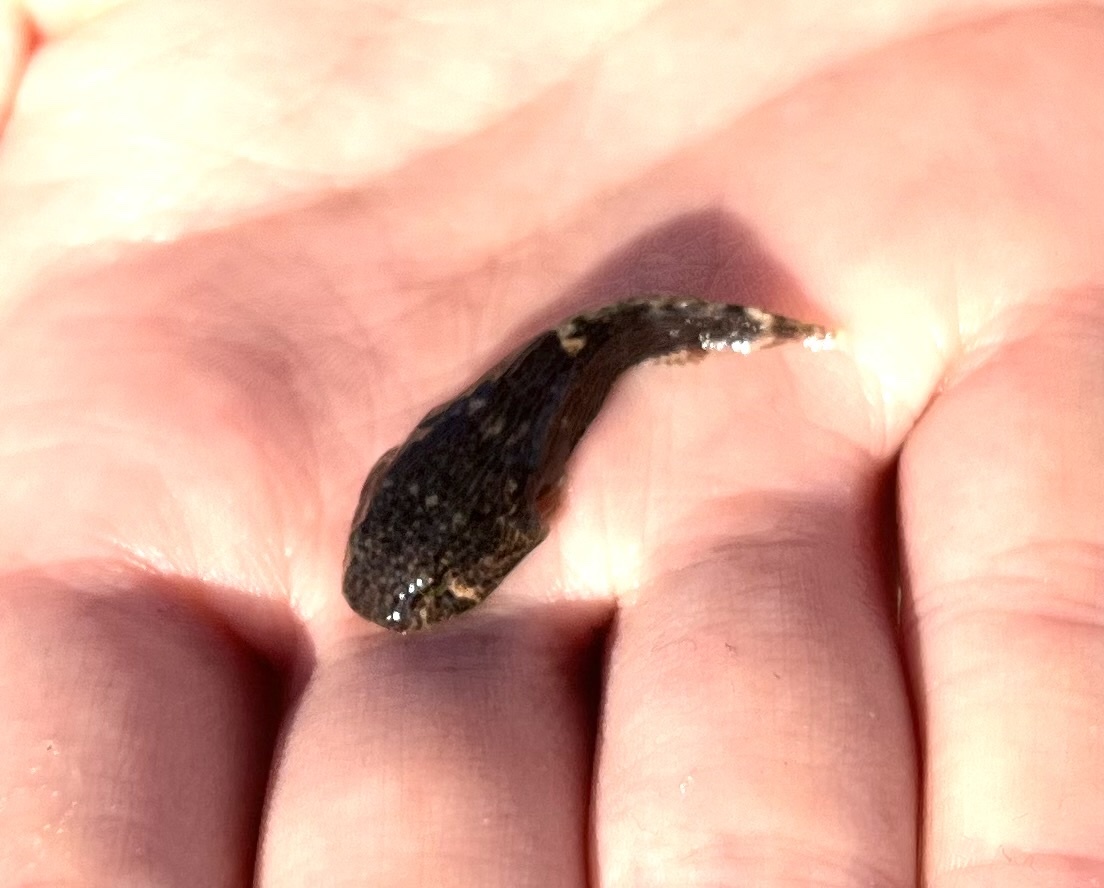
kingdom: Animalia
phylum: Chordata
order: Gobiesociformes
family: Gobiesocidae
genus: Gobiesox
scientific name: Gobiesox strumosus
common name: Skilletfish
